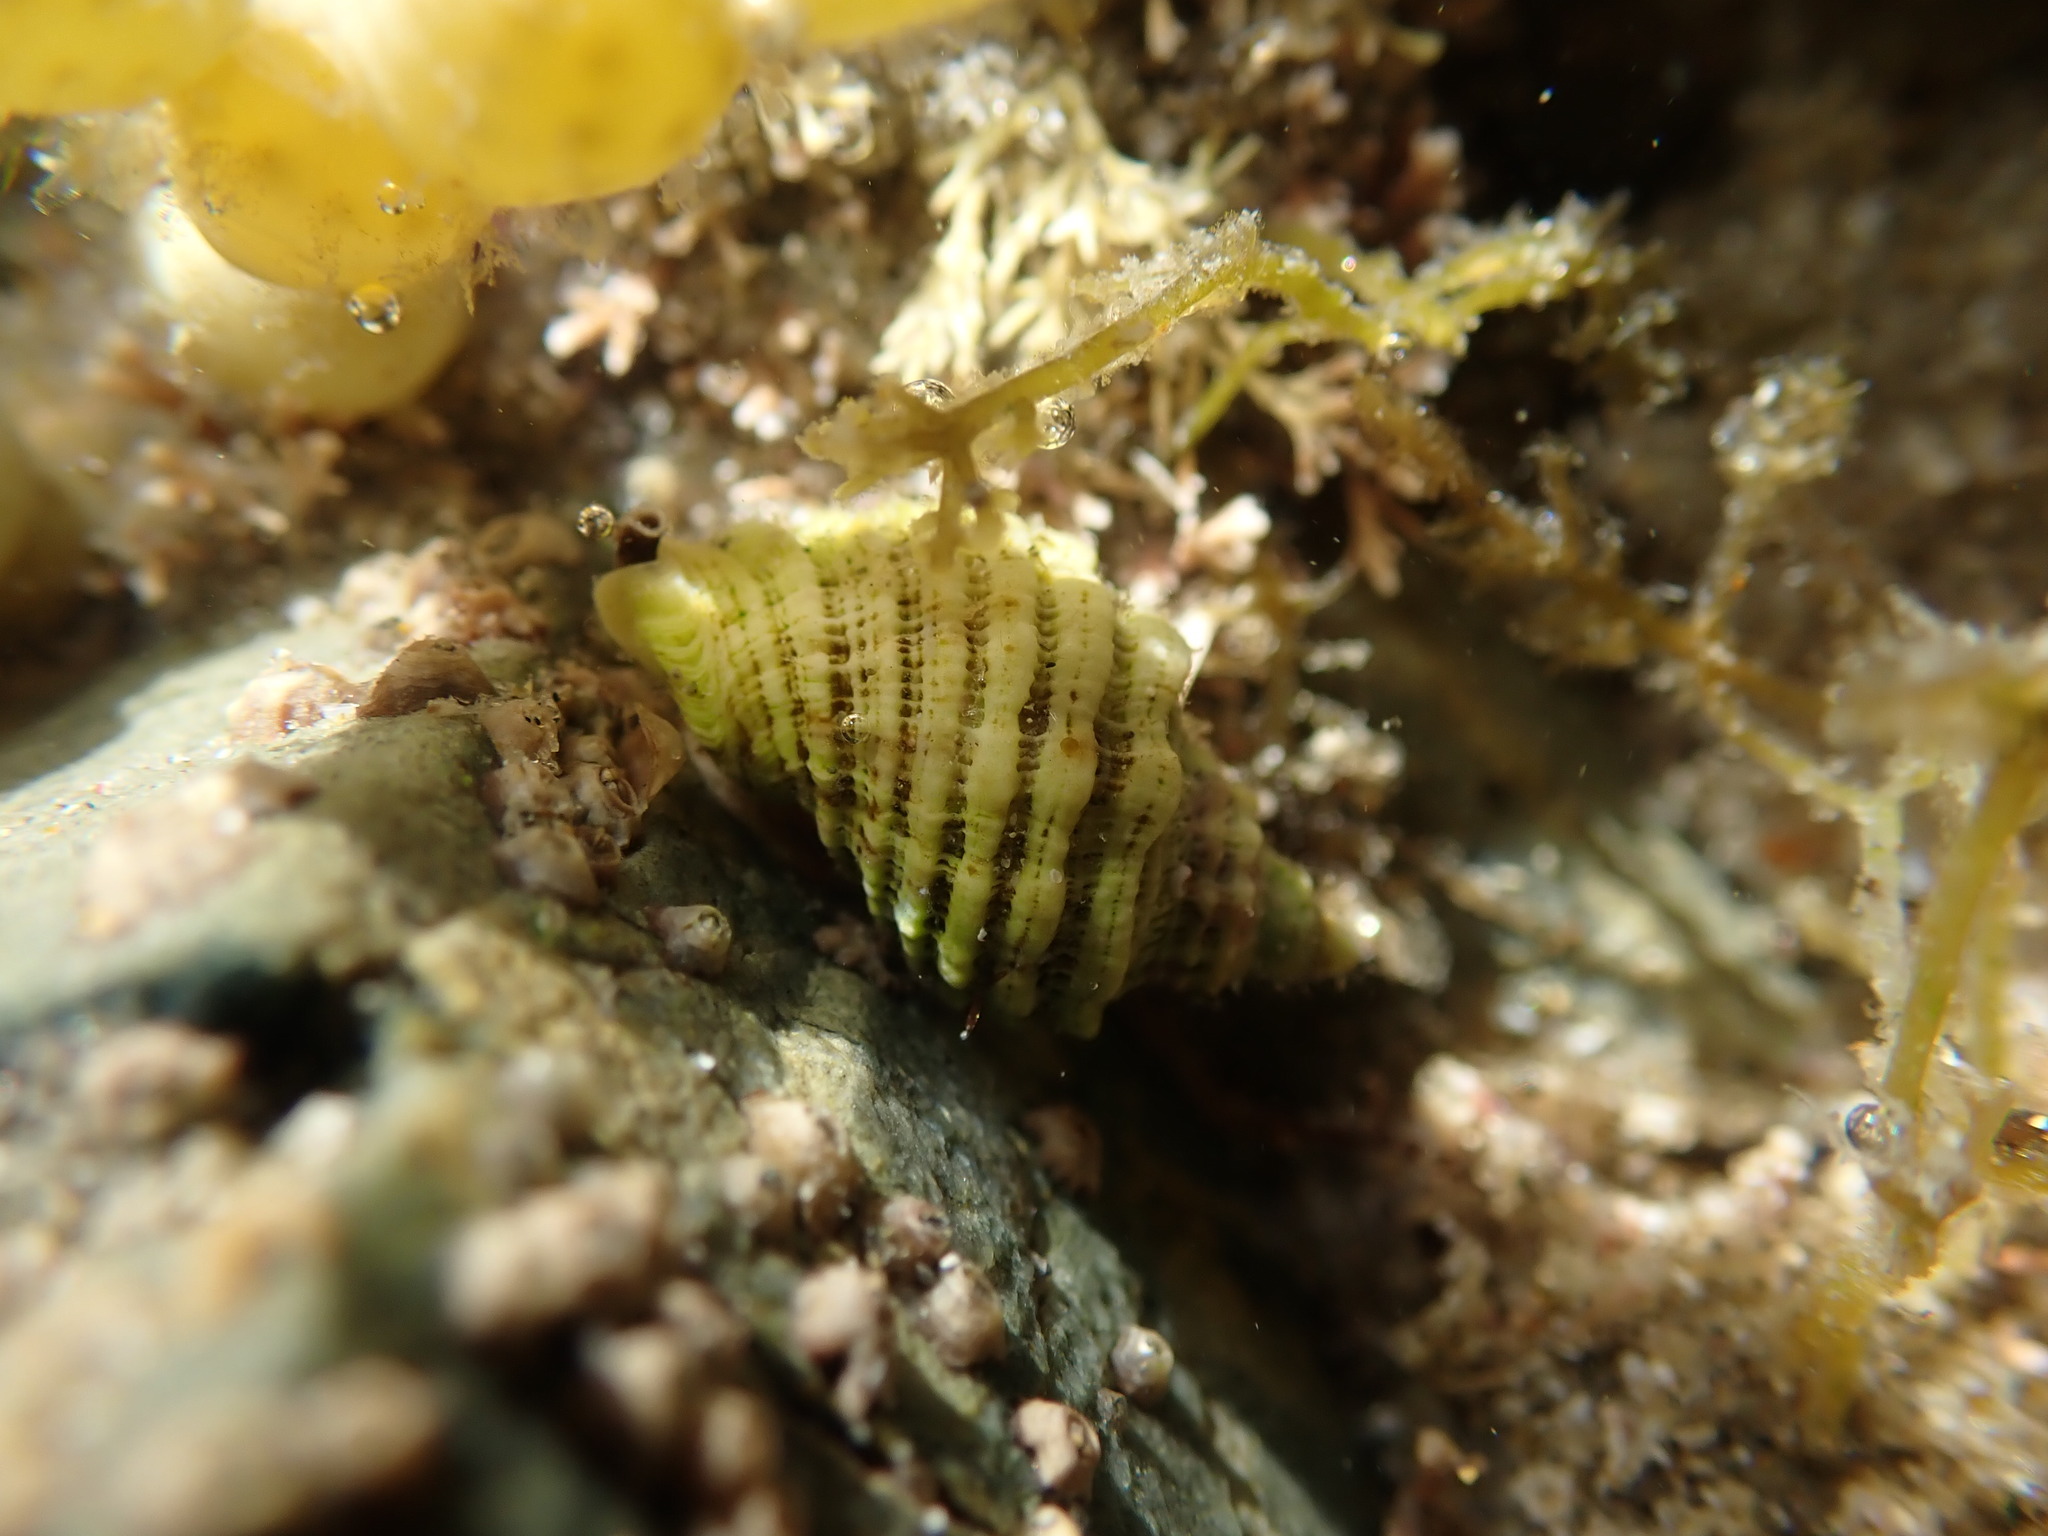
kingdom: Animalia
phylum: Mollusca
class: Gastropoda
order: Neogastropoda
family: Muricidae
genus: Dicathais
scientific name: Dicathais orbita
